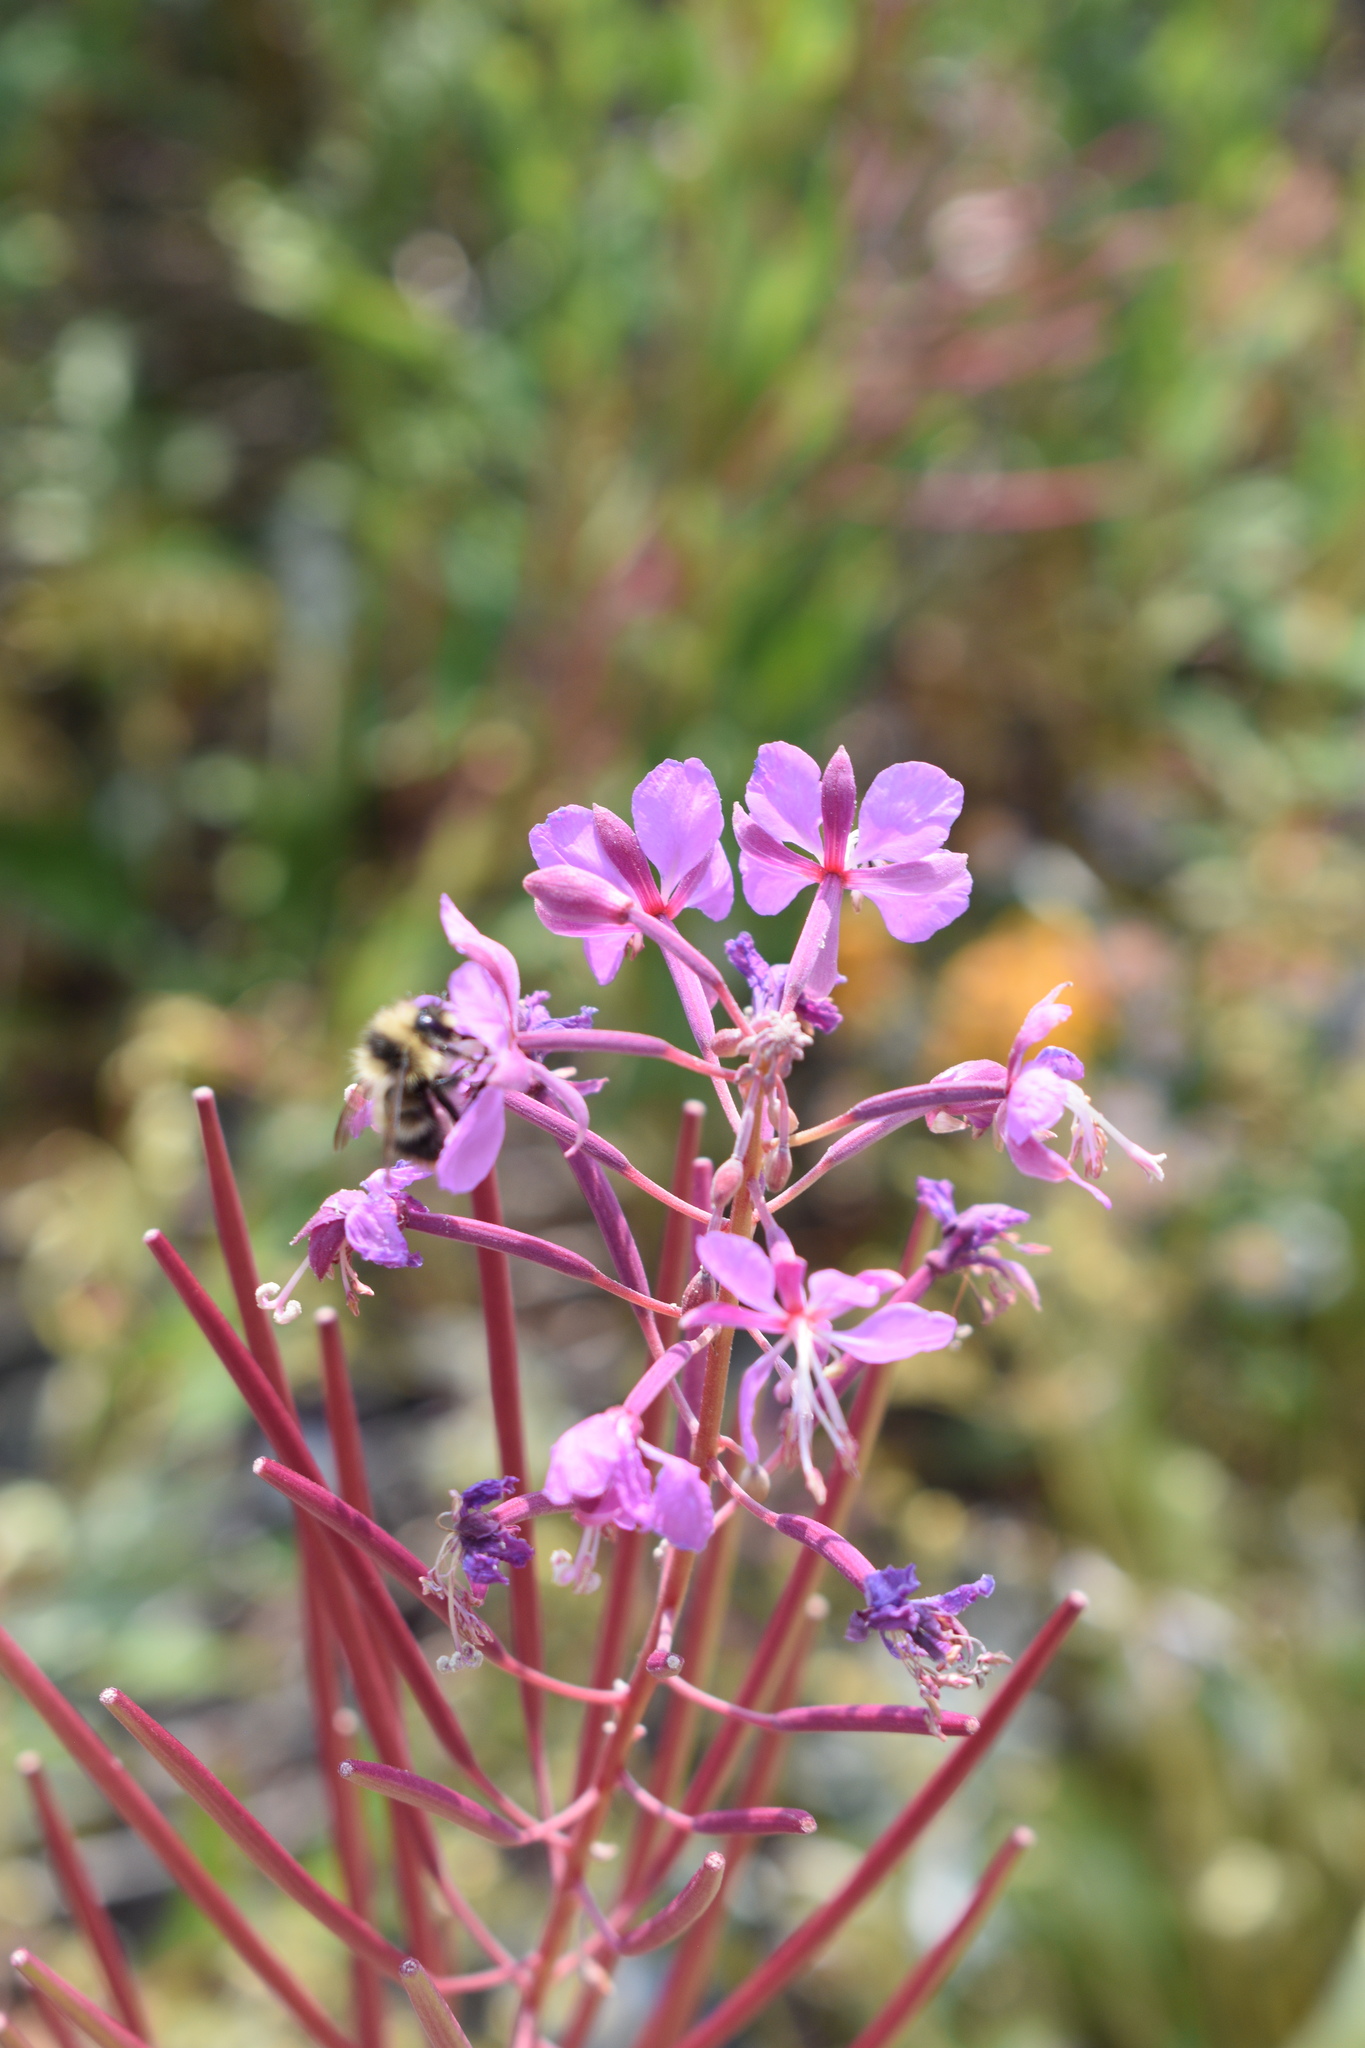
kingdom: Plantae
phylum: Tracheophyta
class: Magnoliopsida
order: Myrtales
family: Onagraceae
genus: Chamaenerion
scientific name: Chamaenerion angustifolium
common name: Fireweed
